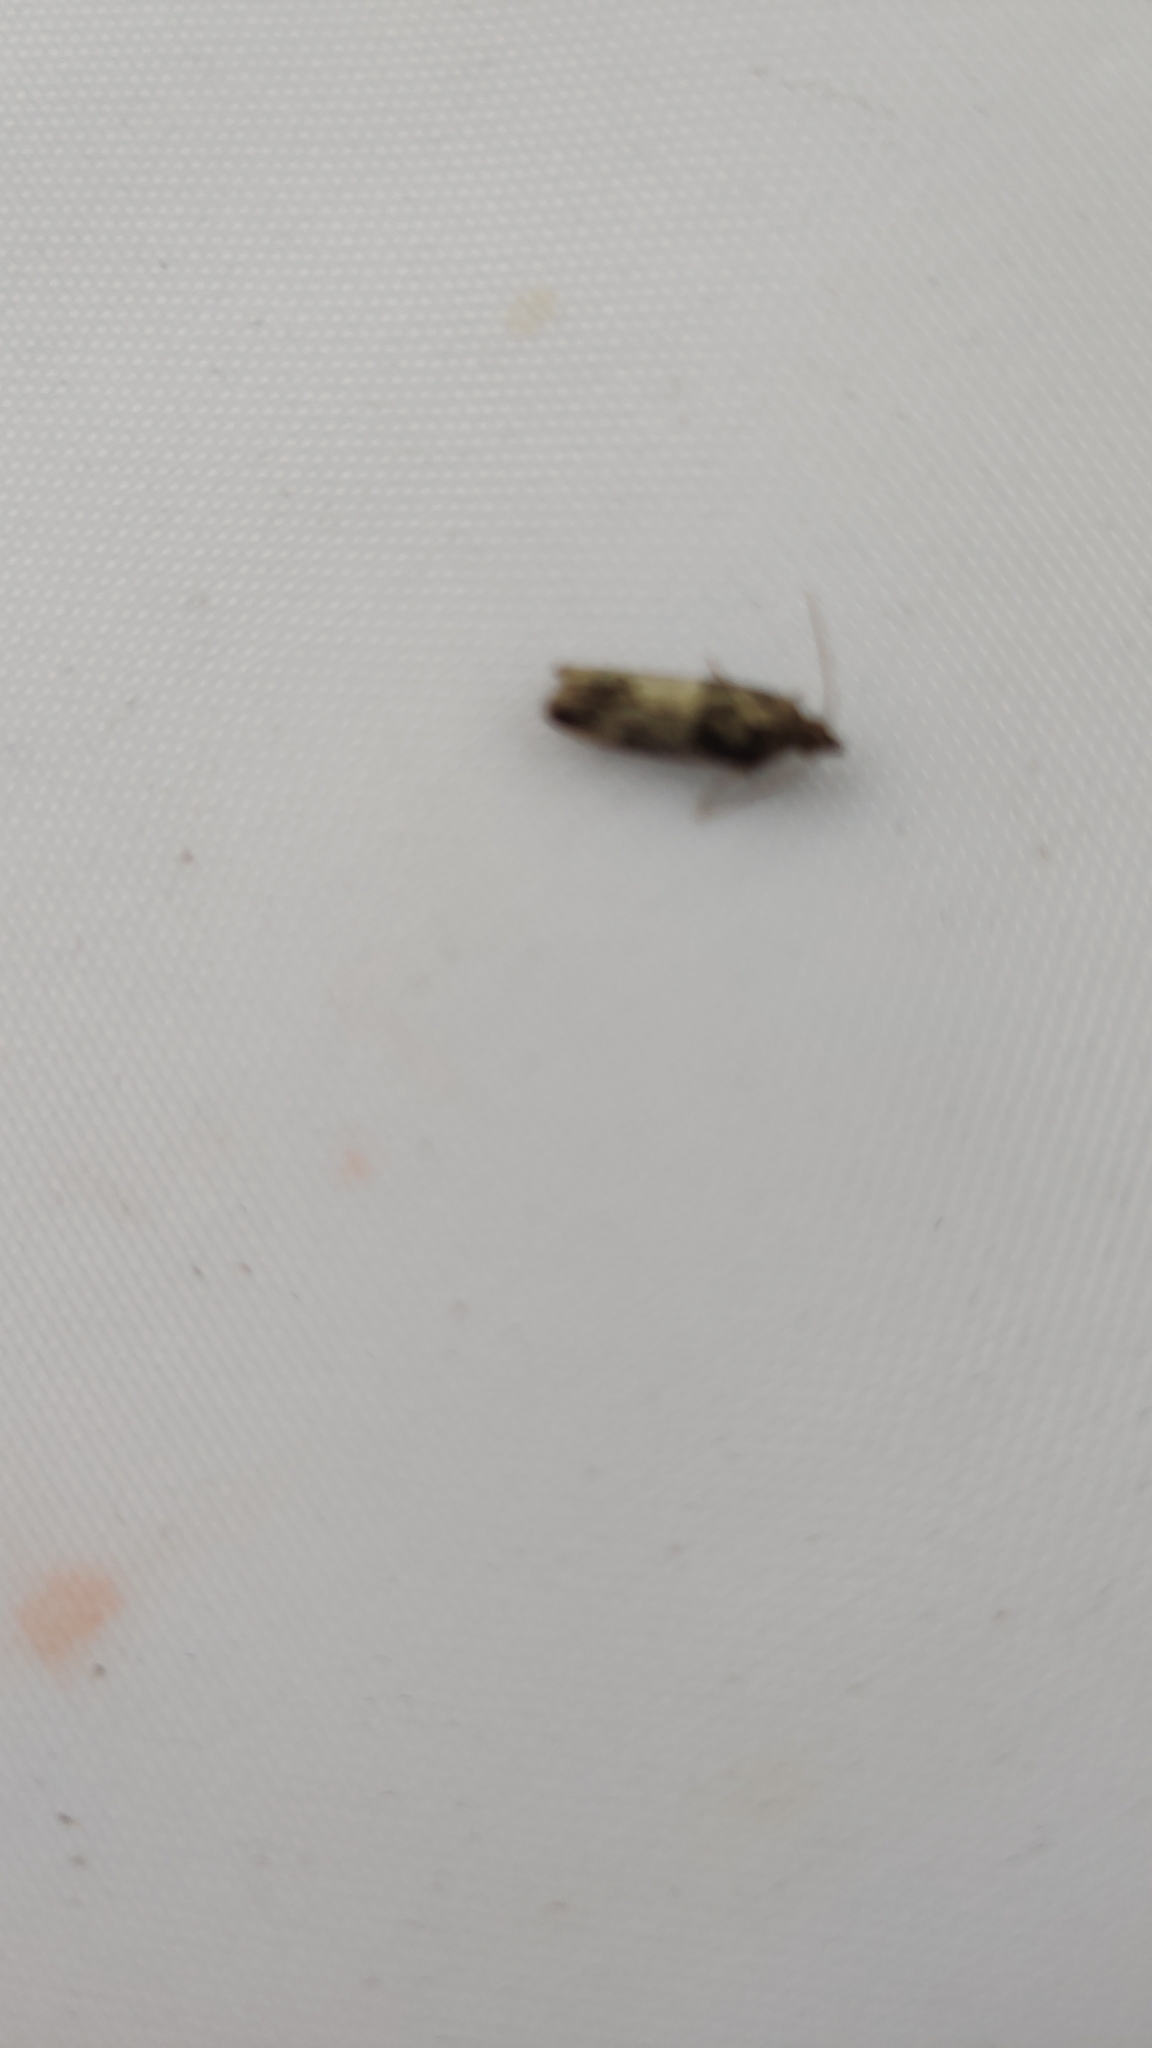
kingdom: Animalia
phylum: Arthropoda
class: Insecta
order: Lepidoptera
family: Pyralidae
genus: Plodia
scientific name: Plodia interpunctella
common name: Indian meal moth
